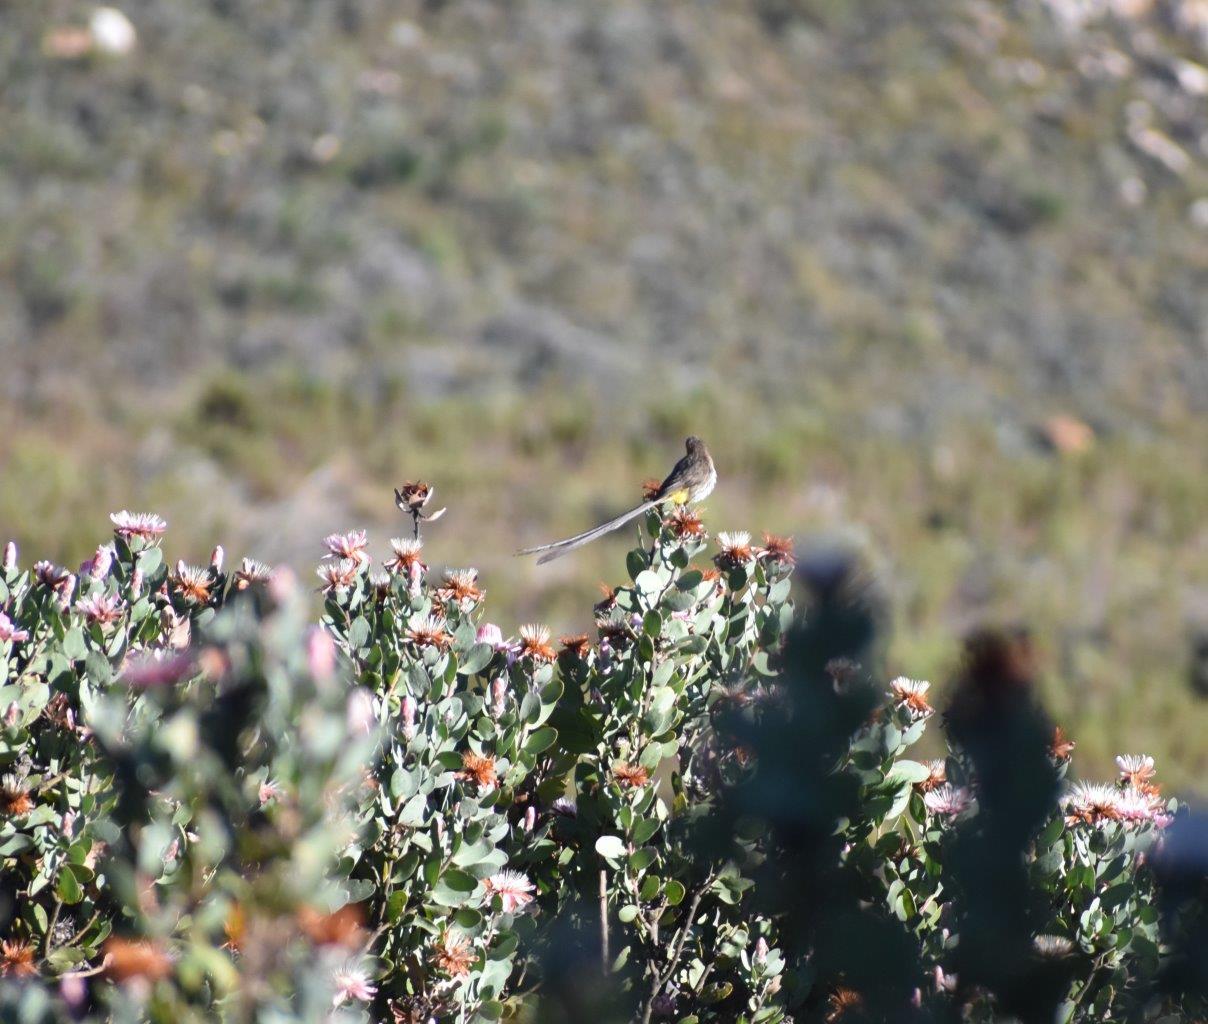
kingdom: Animalia
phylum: Chordata
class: Aves
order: Passeriformes
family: Promeropidae
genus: Promerops
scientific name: Promerops cafer
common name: Cape sugarbird
